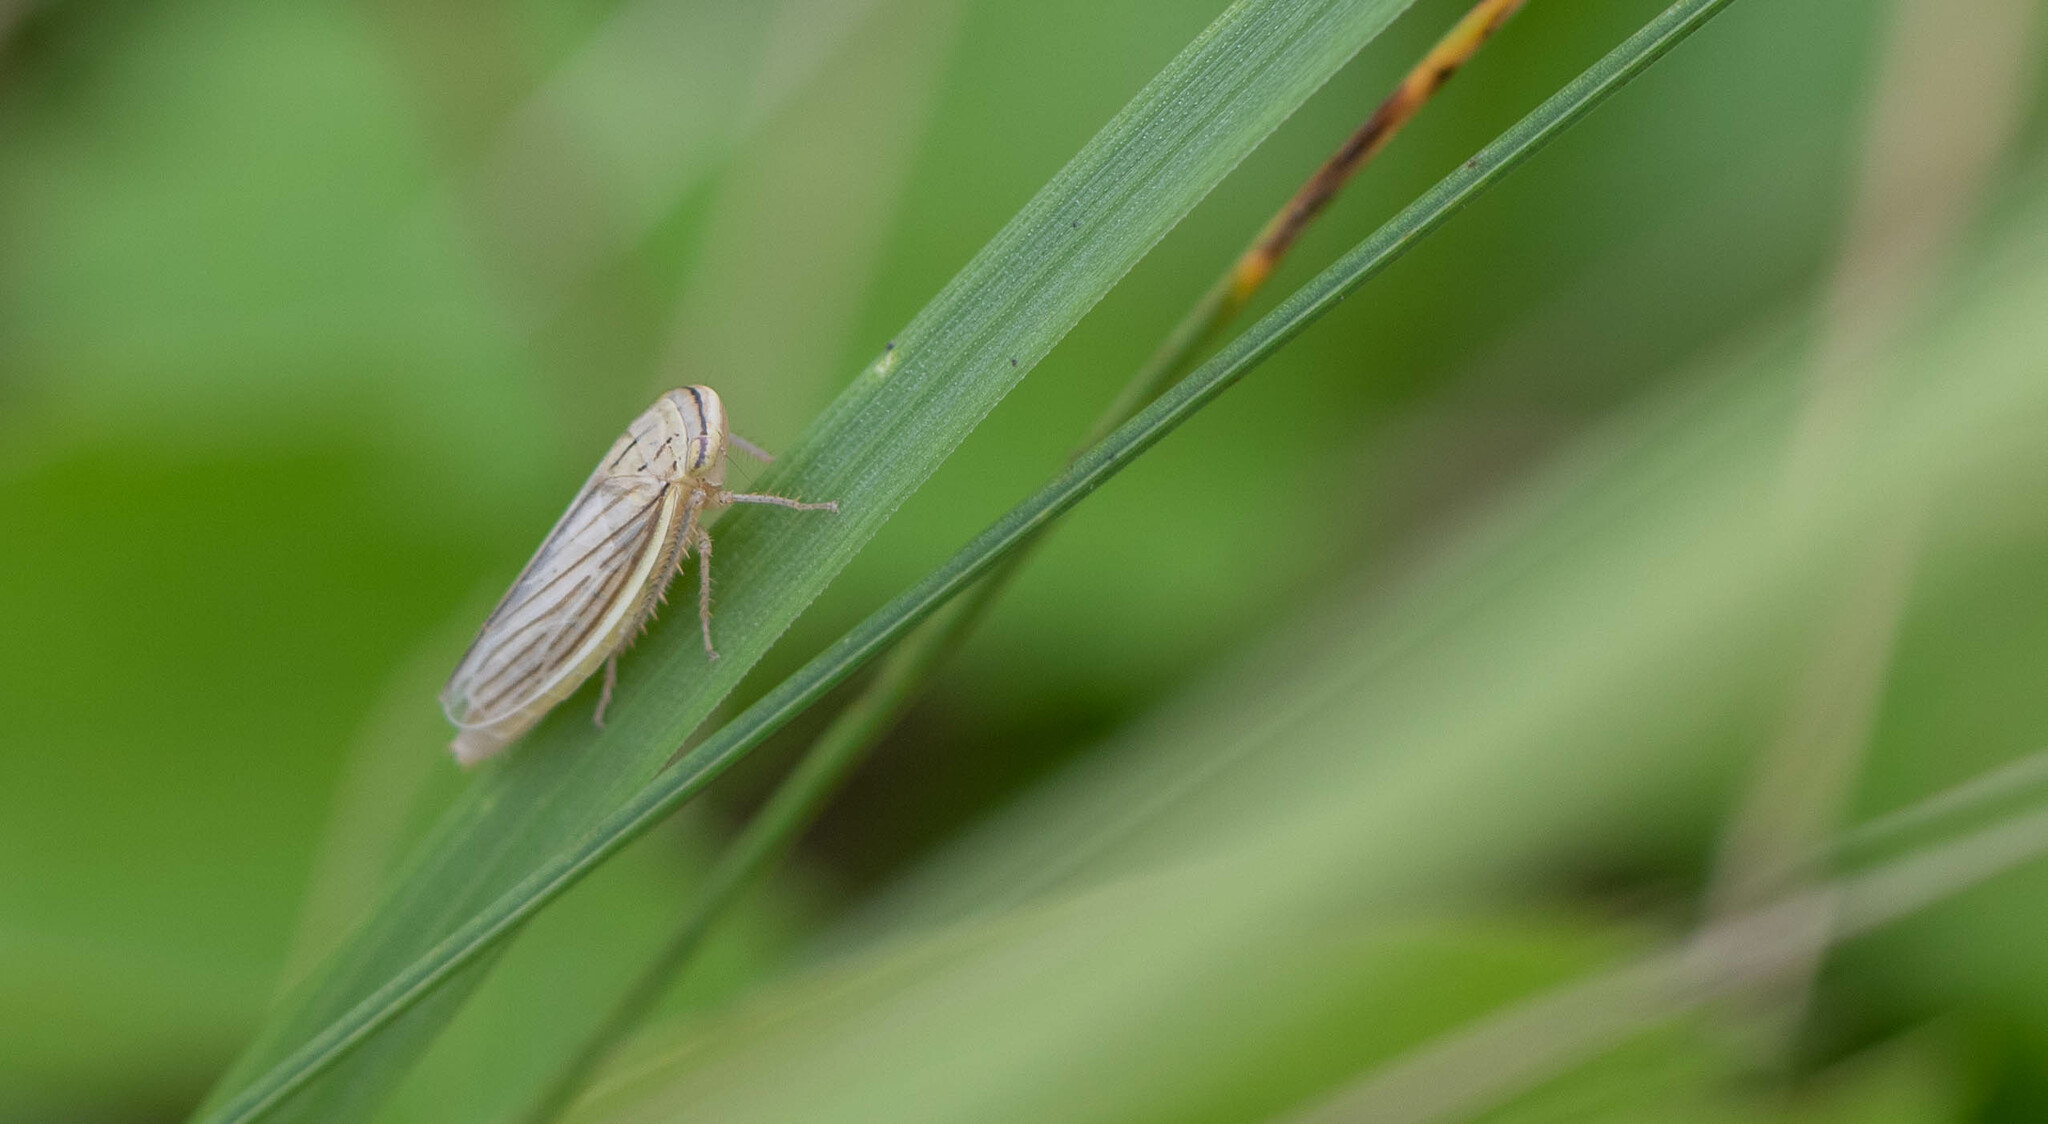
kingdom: Animalia
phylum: Arthropoda
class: Insecta
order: Hemiptera
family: Cicadellidae
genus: Athysanus
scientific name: Athysanus argentarius
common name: Silver leafhopper
